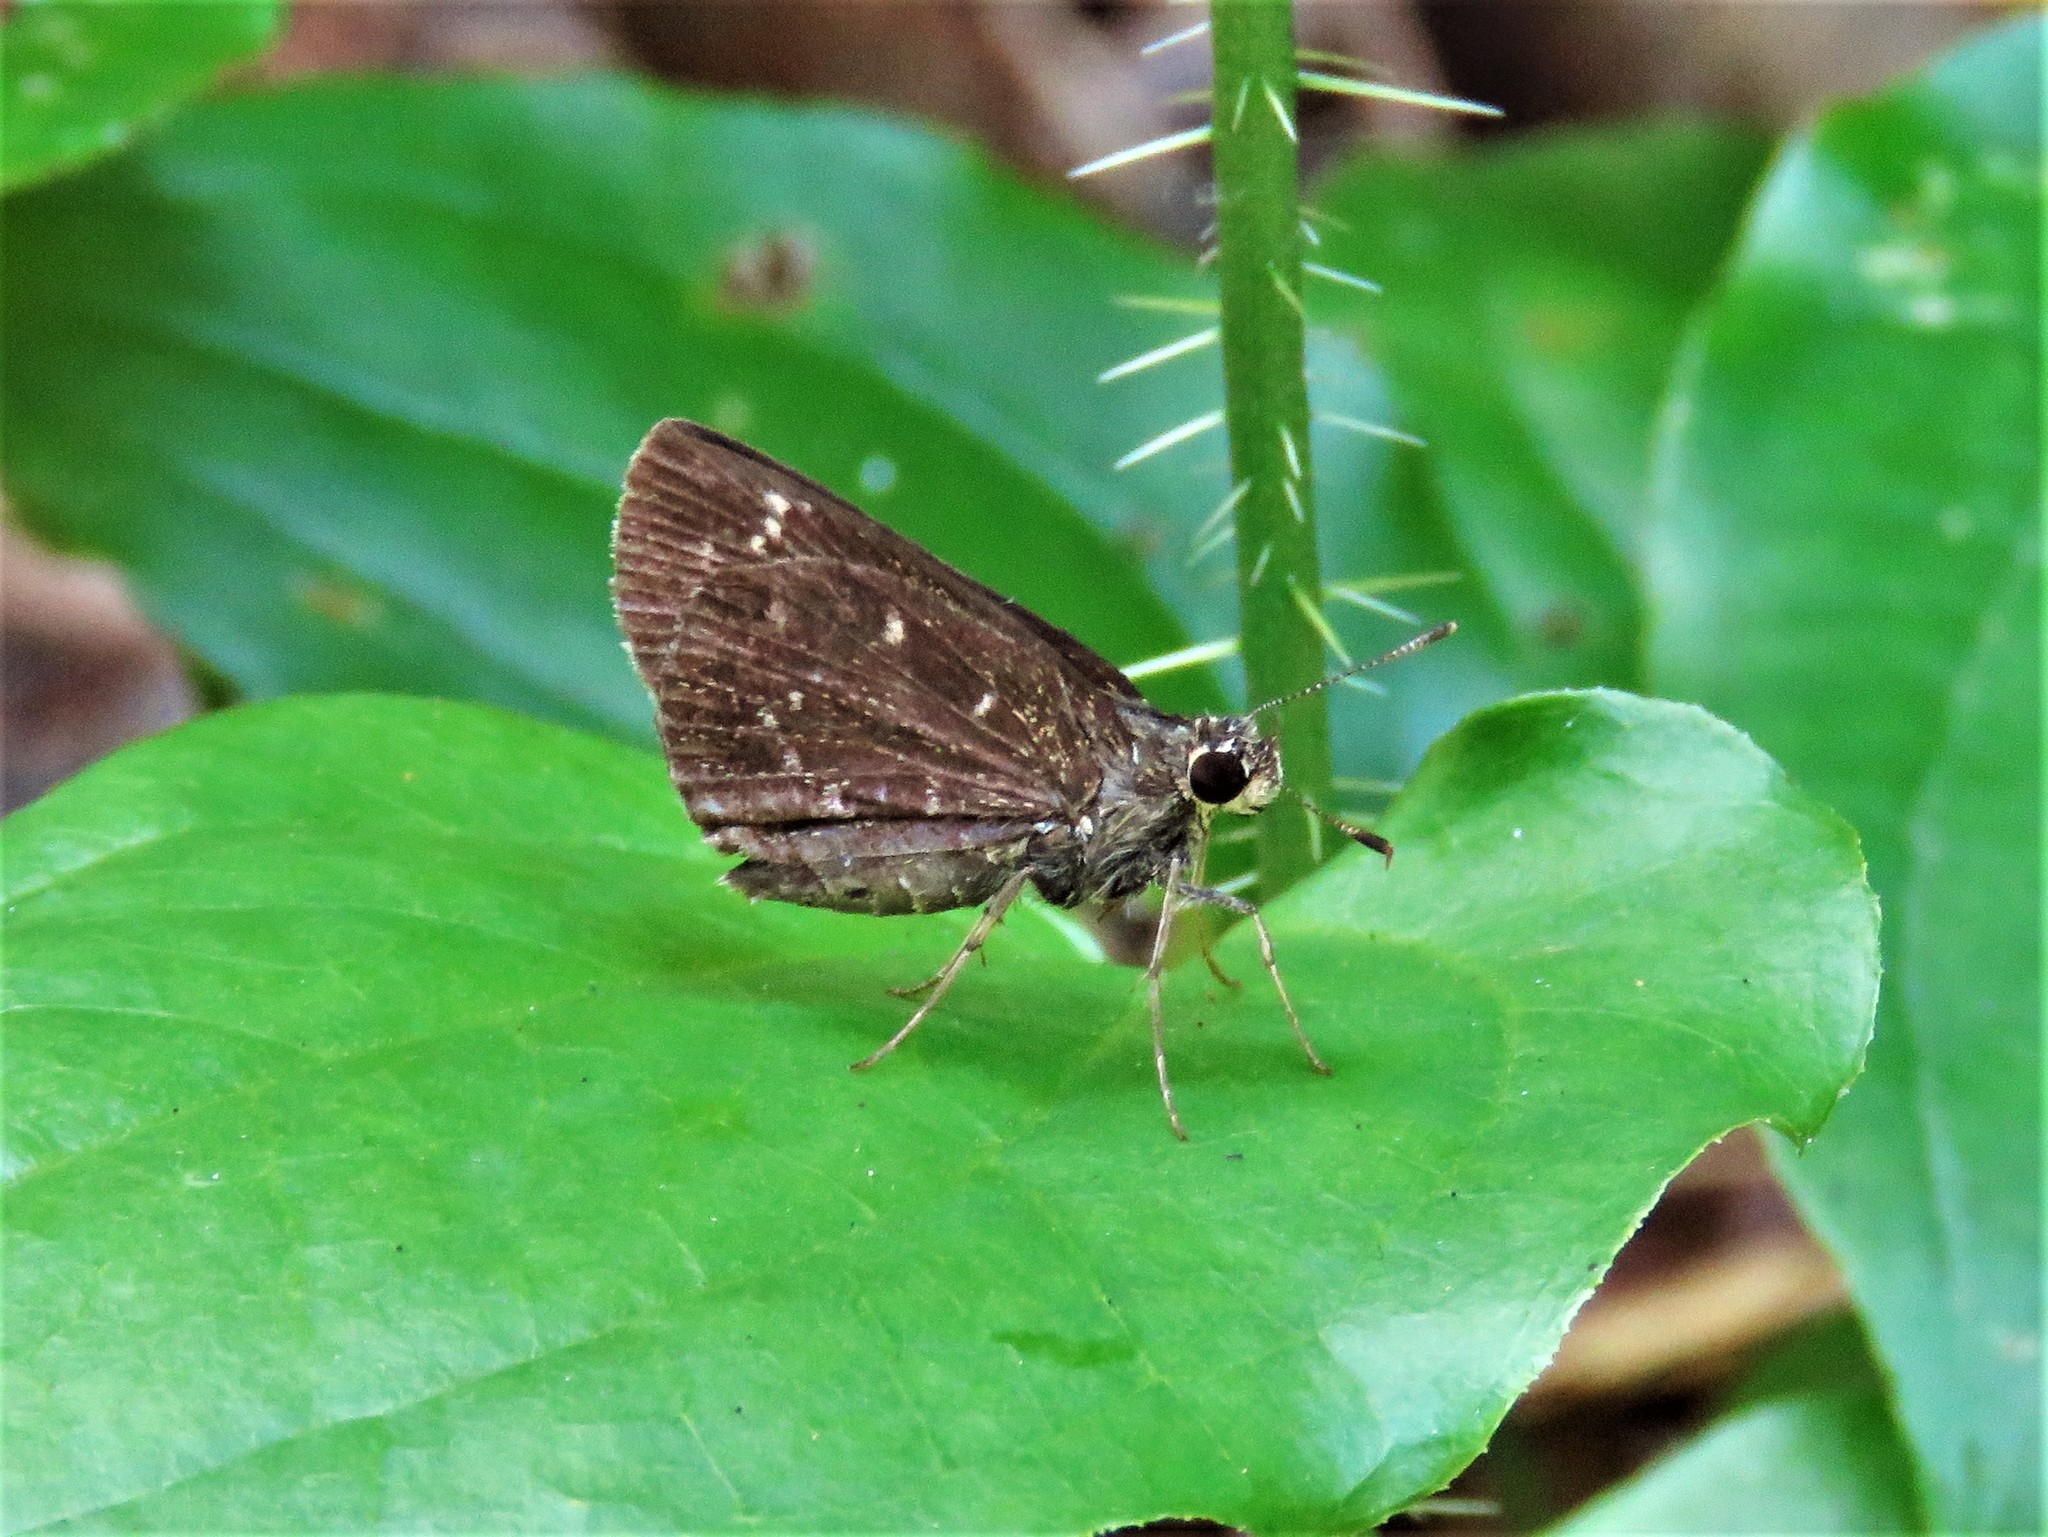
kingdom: Animalia
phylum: Arthropoda
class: Insecta
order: Lepidoptera
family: Hesperiidae
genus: Mastor
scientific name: Mastor celia
